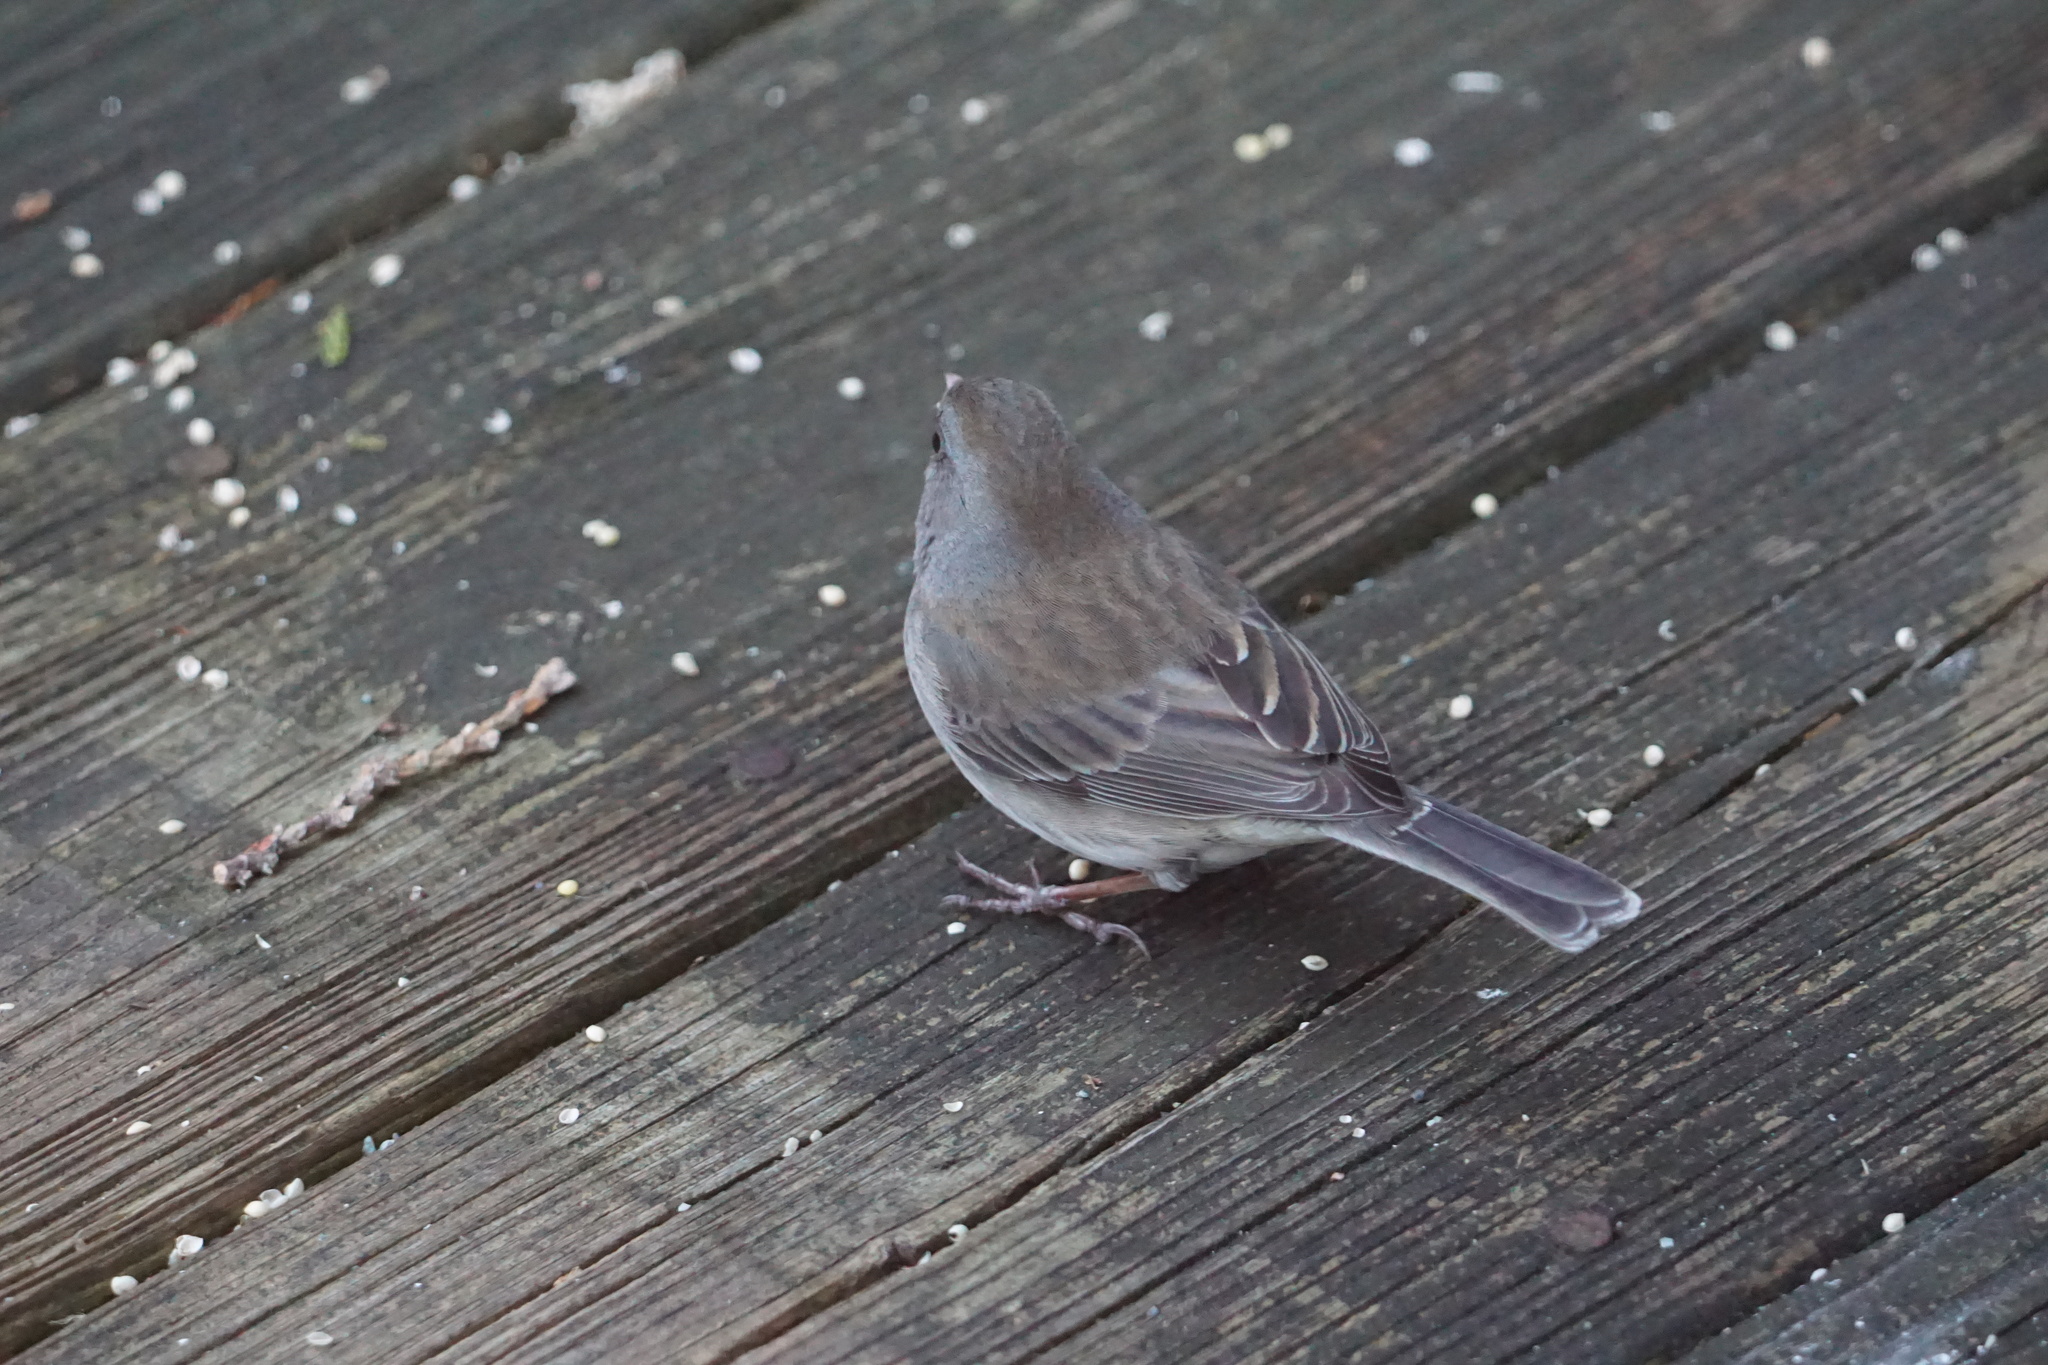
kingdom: Animalia
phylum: Chordata
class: Aves
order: Passeriformes
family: Passerellidae
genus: Junco
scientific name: Junco hyemalis
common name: Dark-eyed junco
